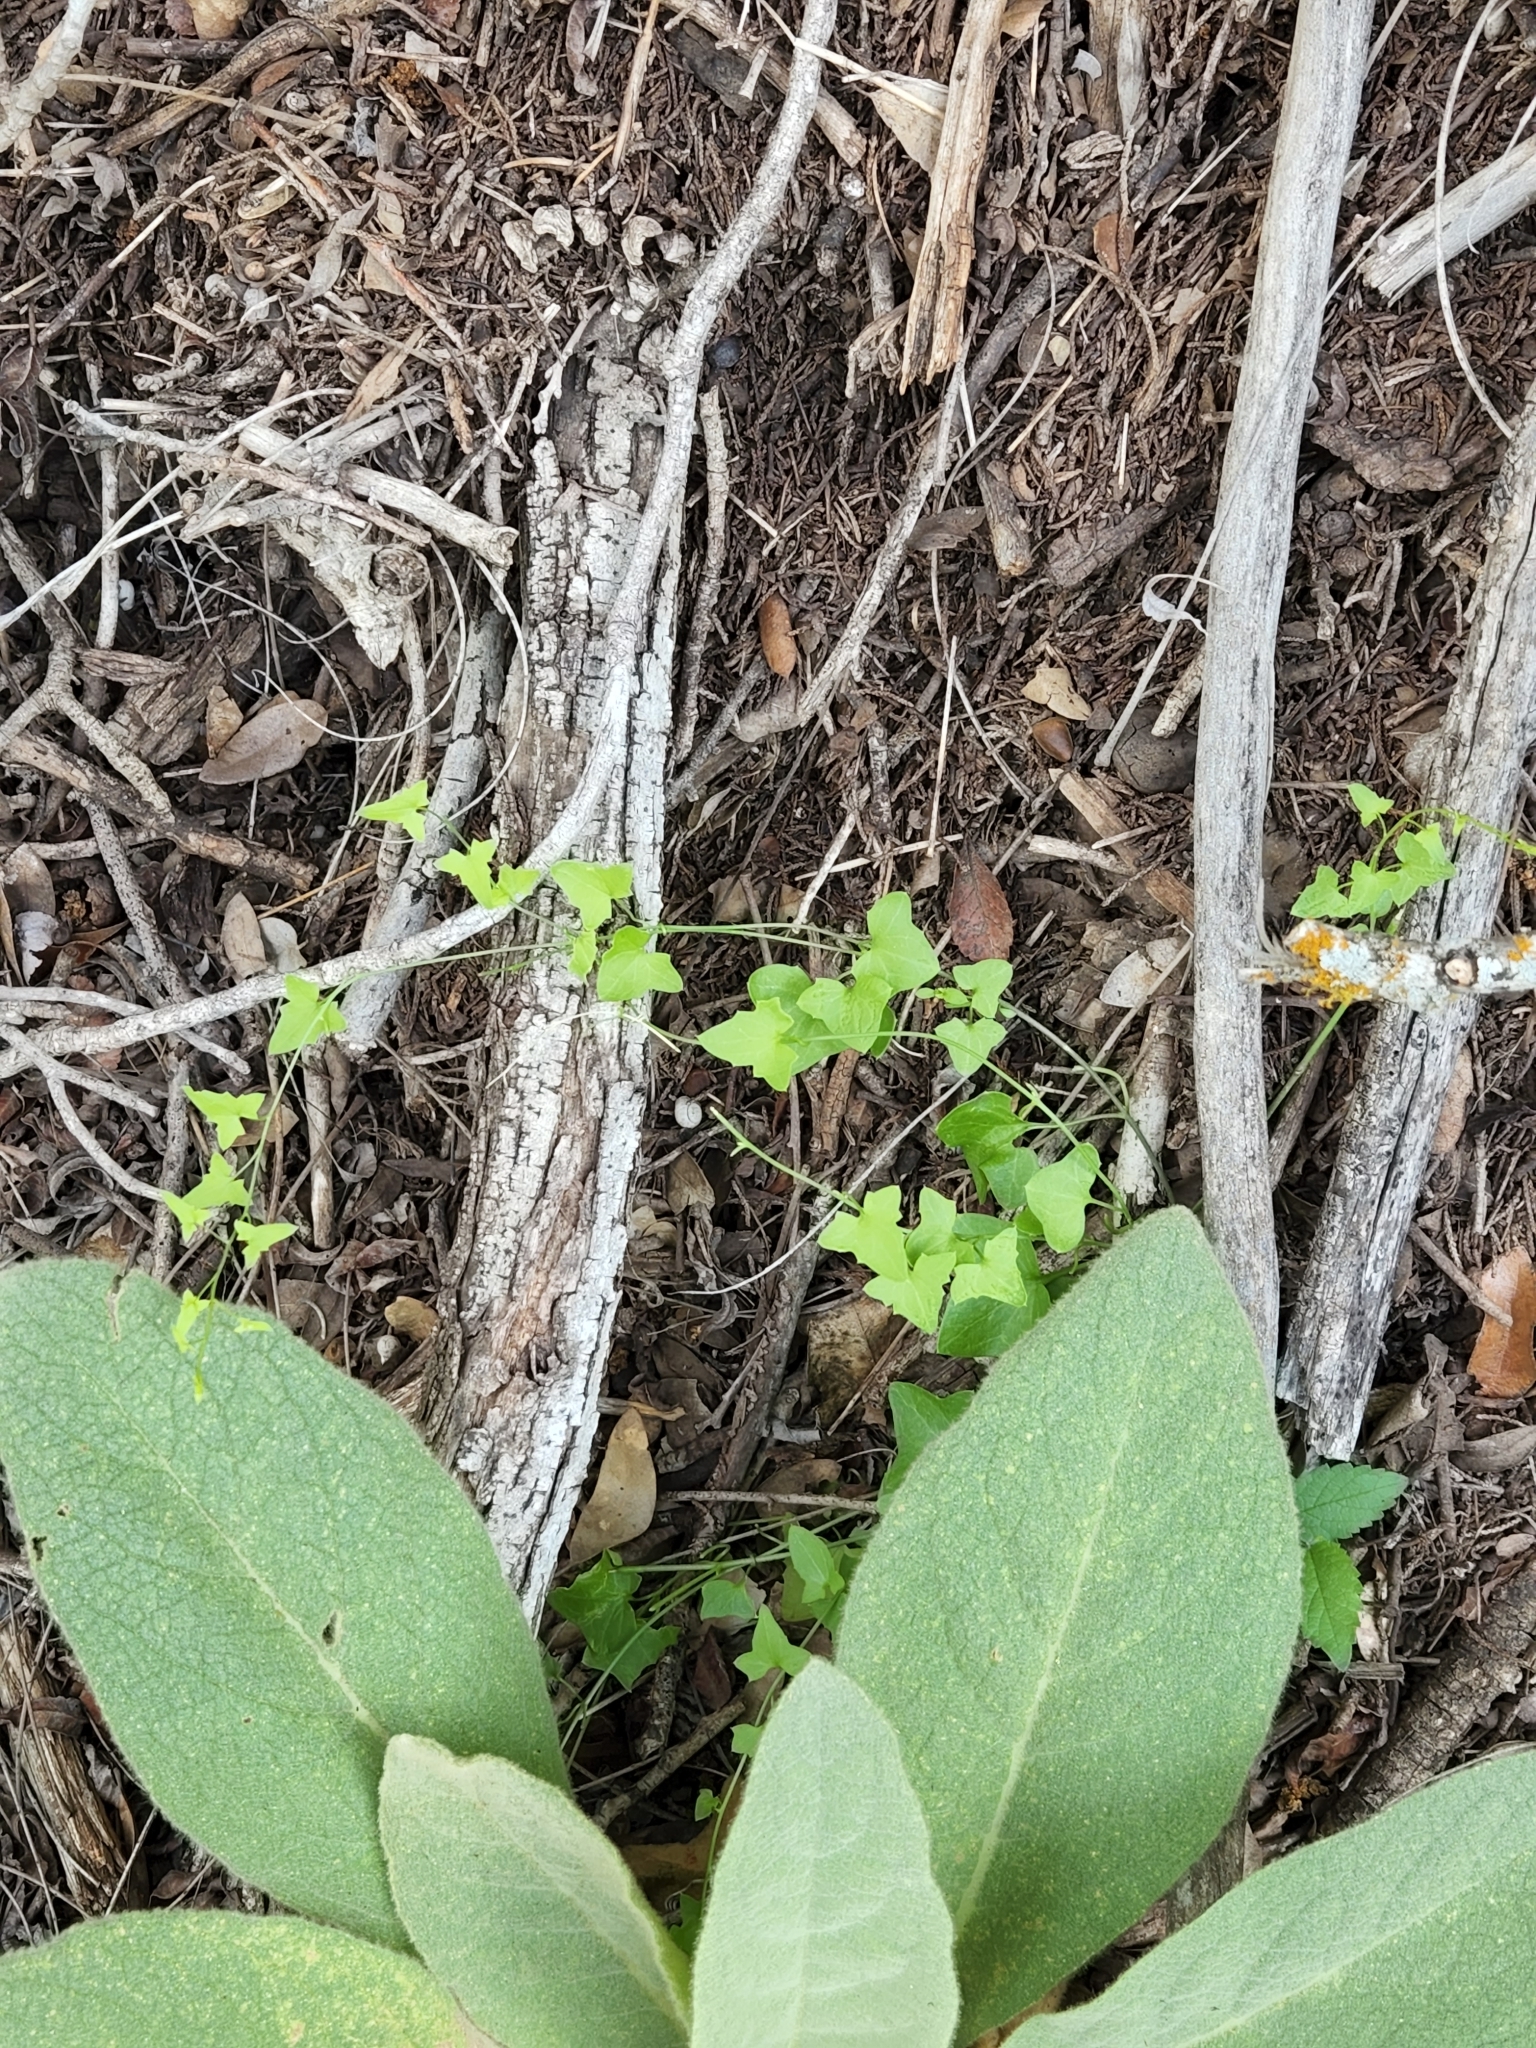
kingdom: Plantae
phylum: Tracheophyta
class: Magnoliopsida
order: Lamiales
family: Plantaginaceae
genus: Maurandella
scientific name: Maurandella antirrhiniflora
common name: Violet twining-snapdragon
